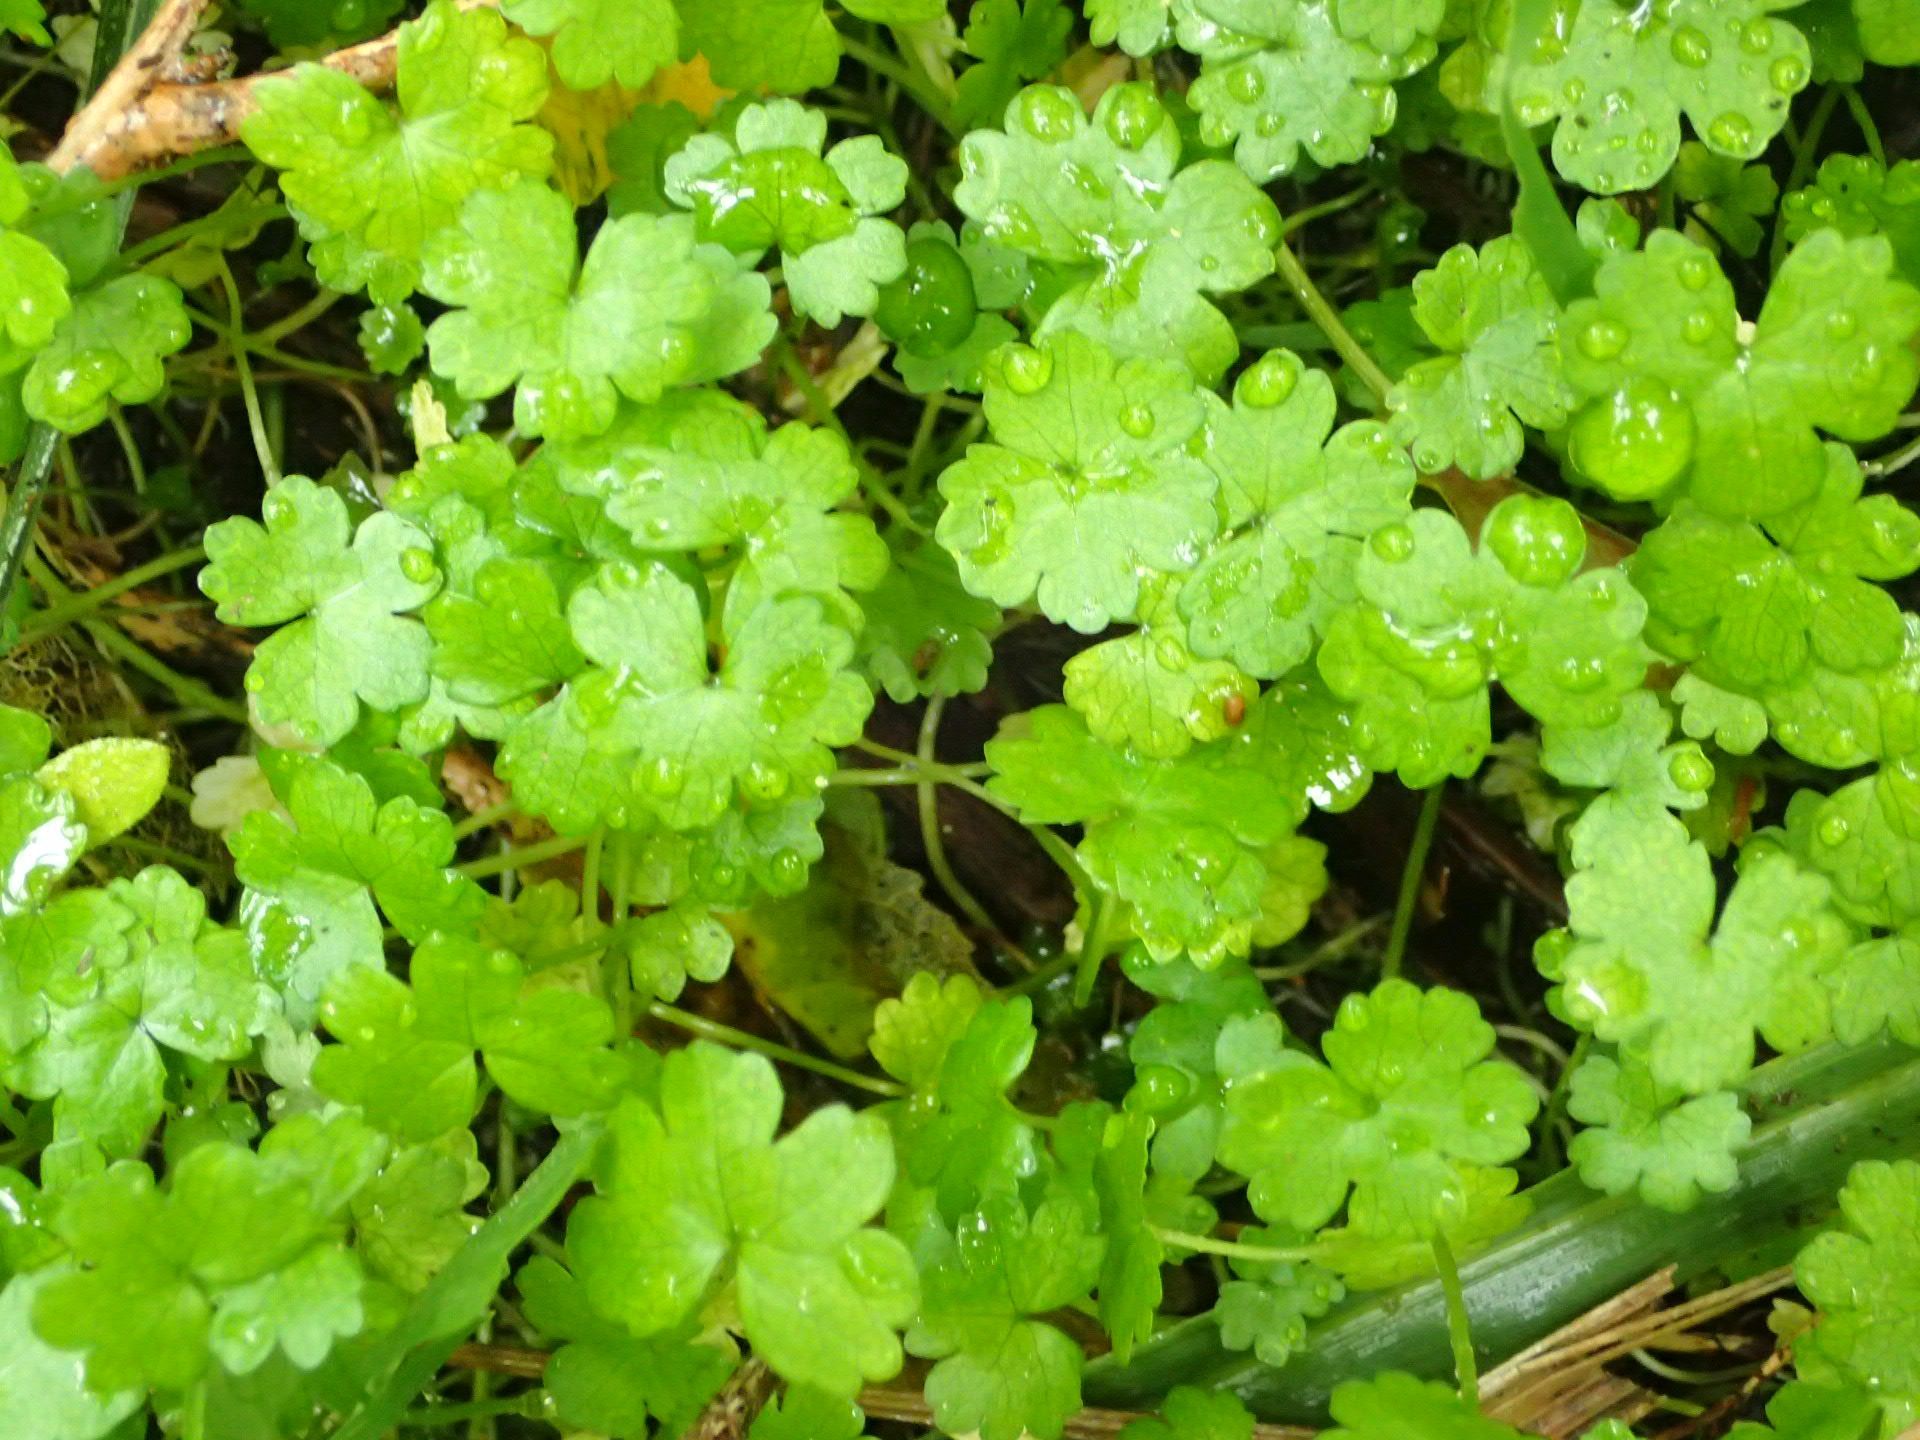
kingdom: Plantae
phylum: Tracheophyta
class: Magnoliopsida
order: Apiales
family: Araliaceae
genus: Hydrocotyle
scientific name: Hydrocotyle heteromeria
